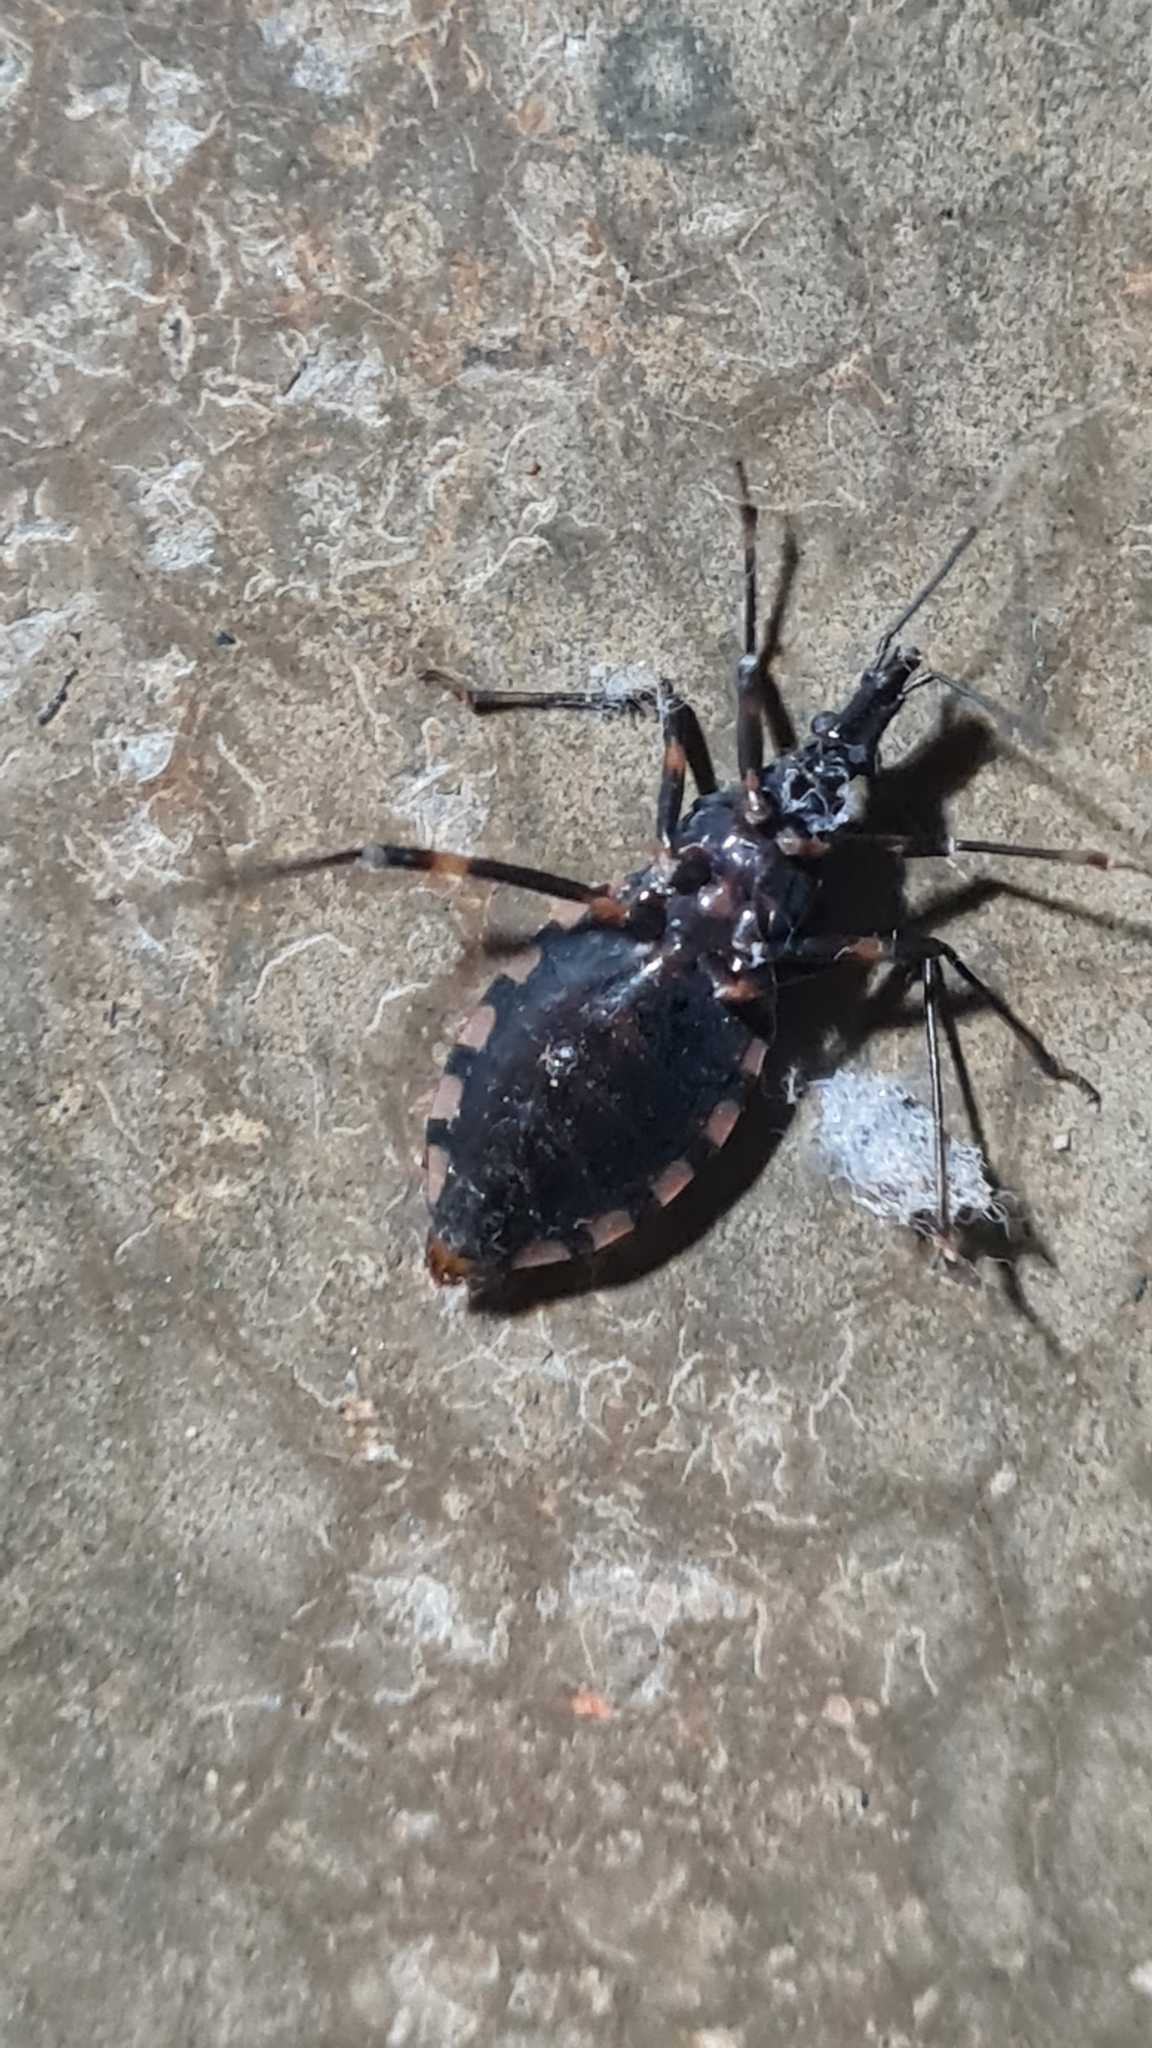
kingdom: Animalia
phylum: Arthropoda
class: Insecta
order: Hemiptera
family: Reduviidae
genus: Triatoma
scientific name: Triatoma brasiliensis
